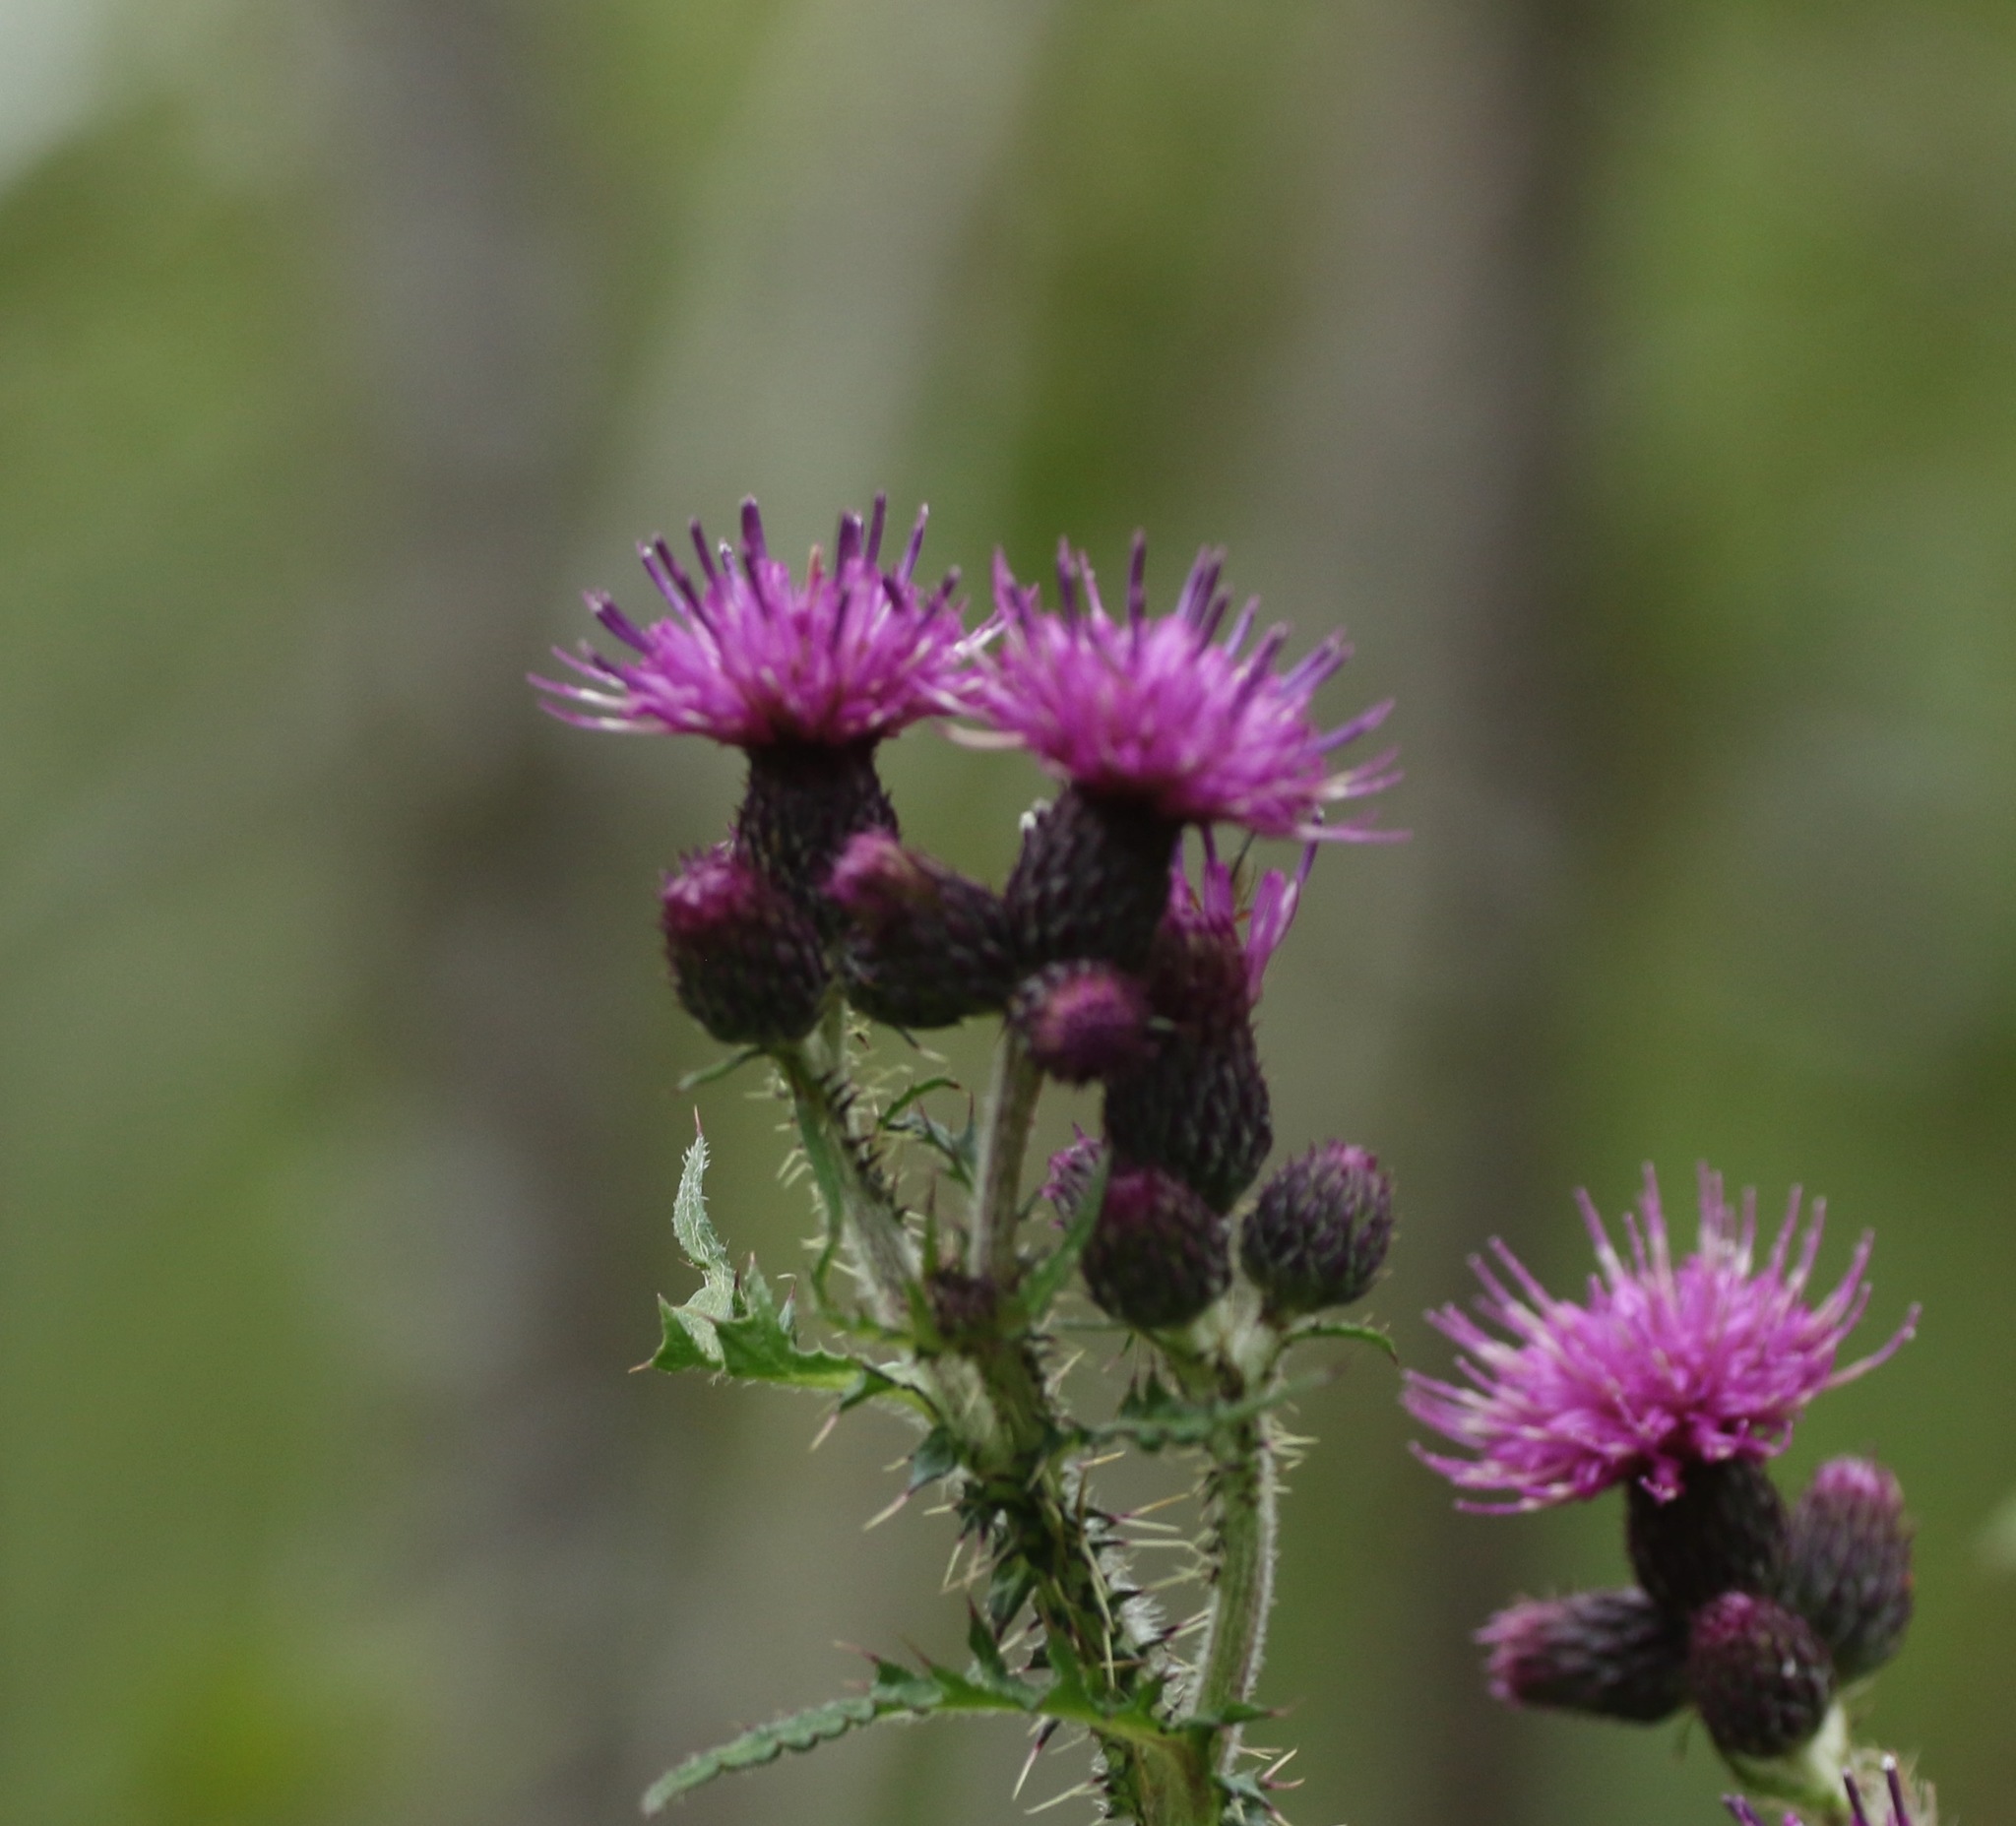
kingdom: Plantae
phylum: Tracheophyta
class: Magnoliopsida
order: Asterales
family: Asteraceae
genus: Cirsium
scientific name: Cirsium palustre
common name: Marsh thistle
